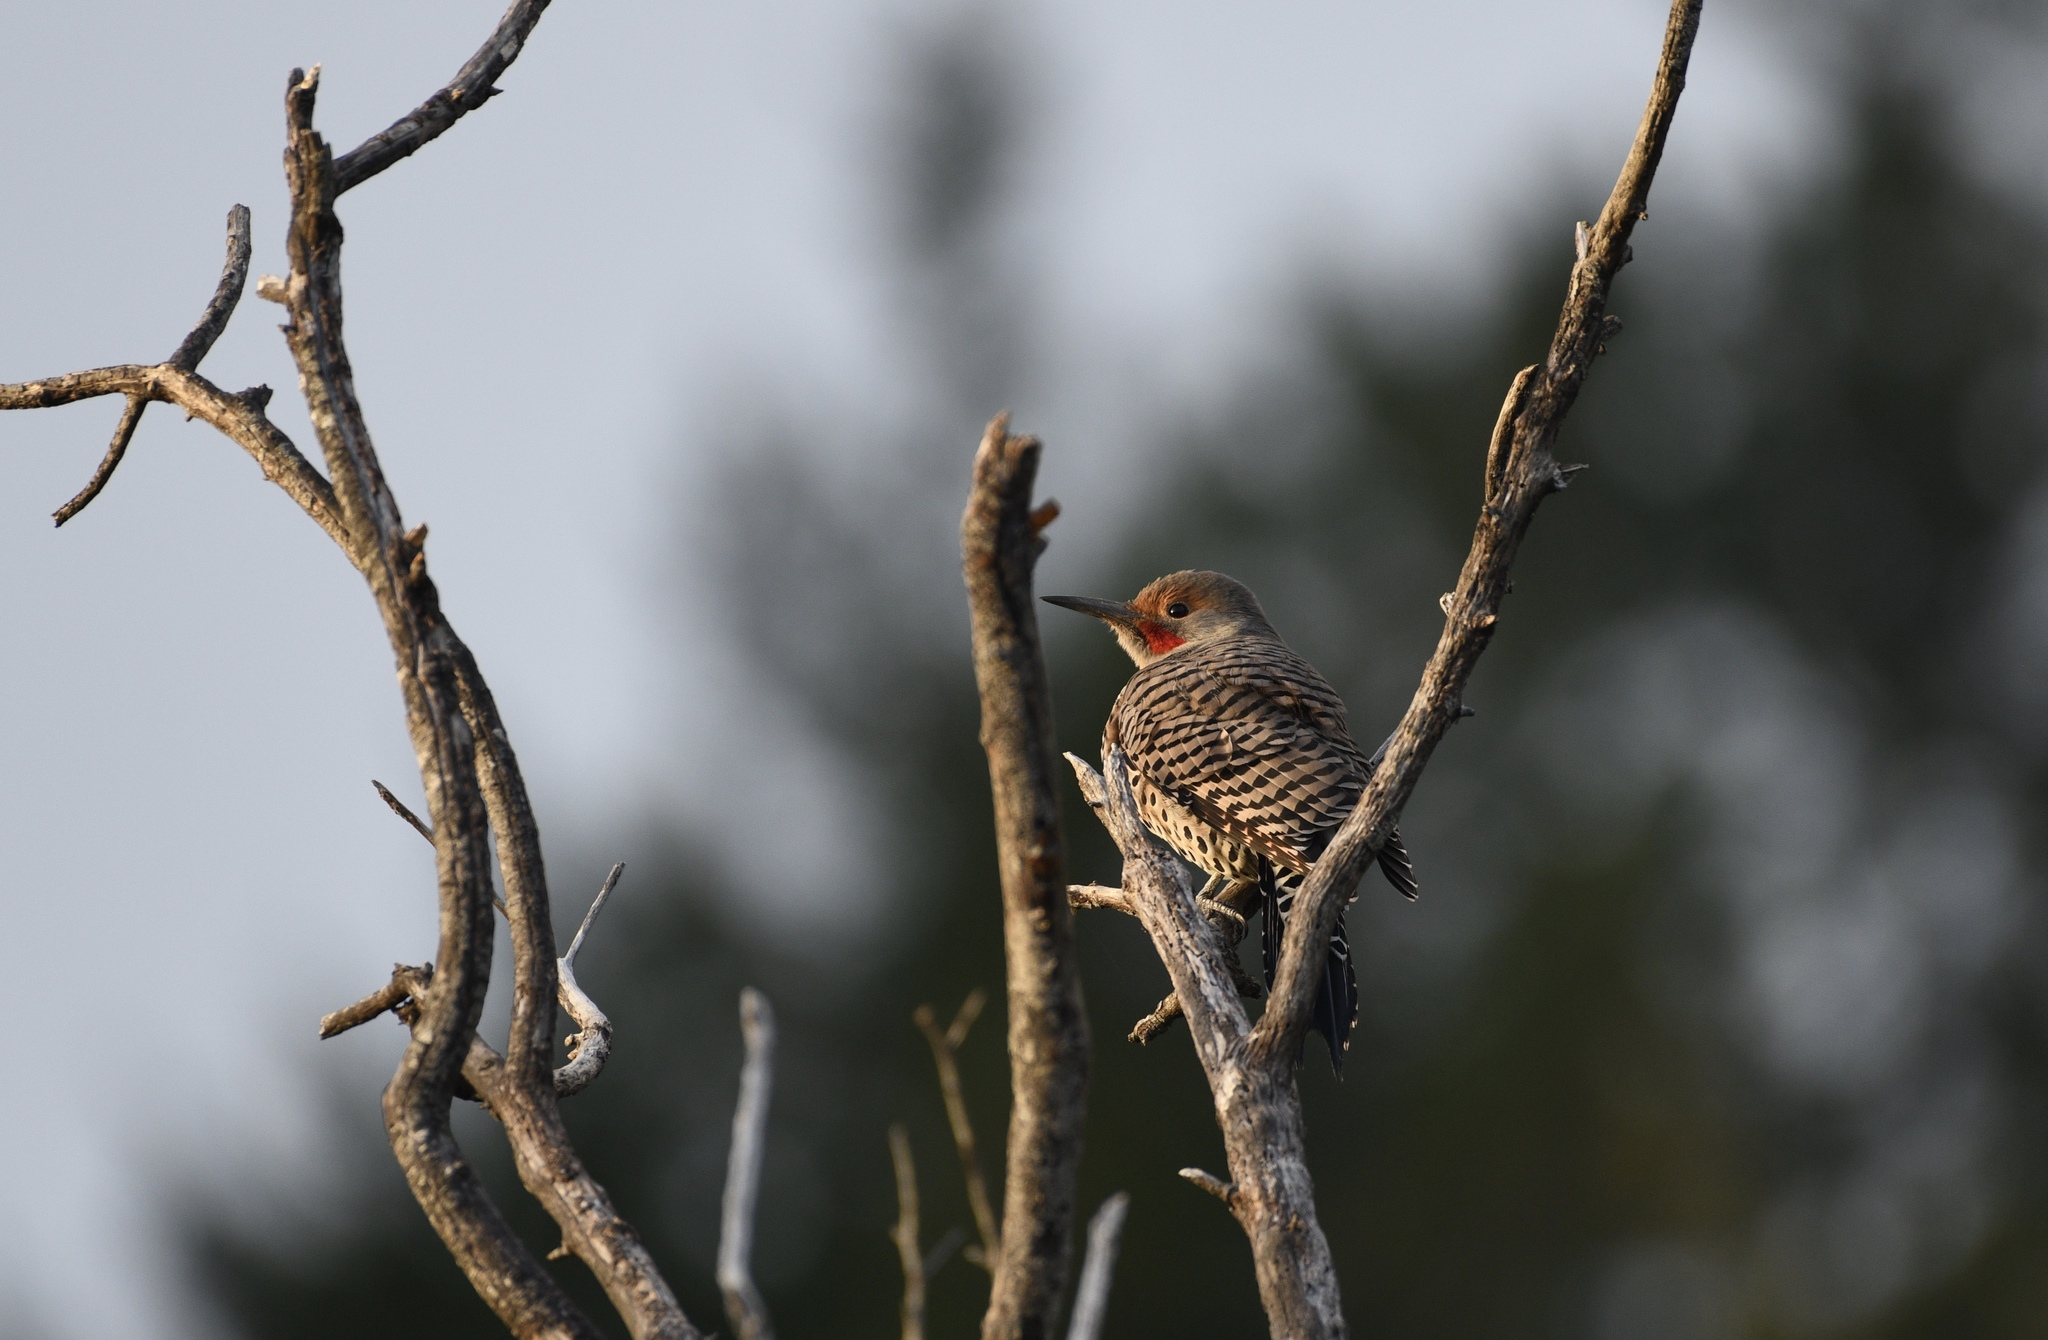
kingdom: Animalia
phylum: Chordata
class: Aves
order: Piciformes
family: Picidae
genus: Colaptes
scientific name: Colaptes auratus
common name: Northern flicker
